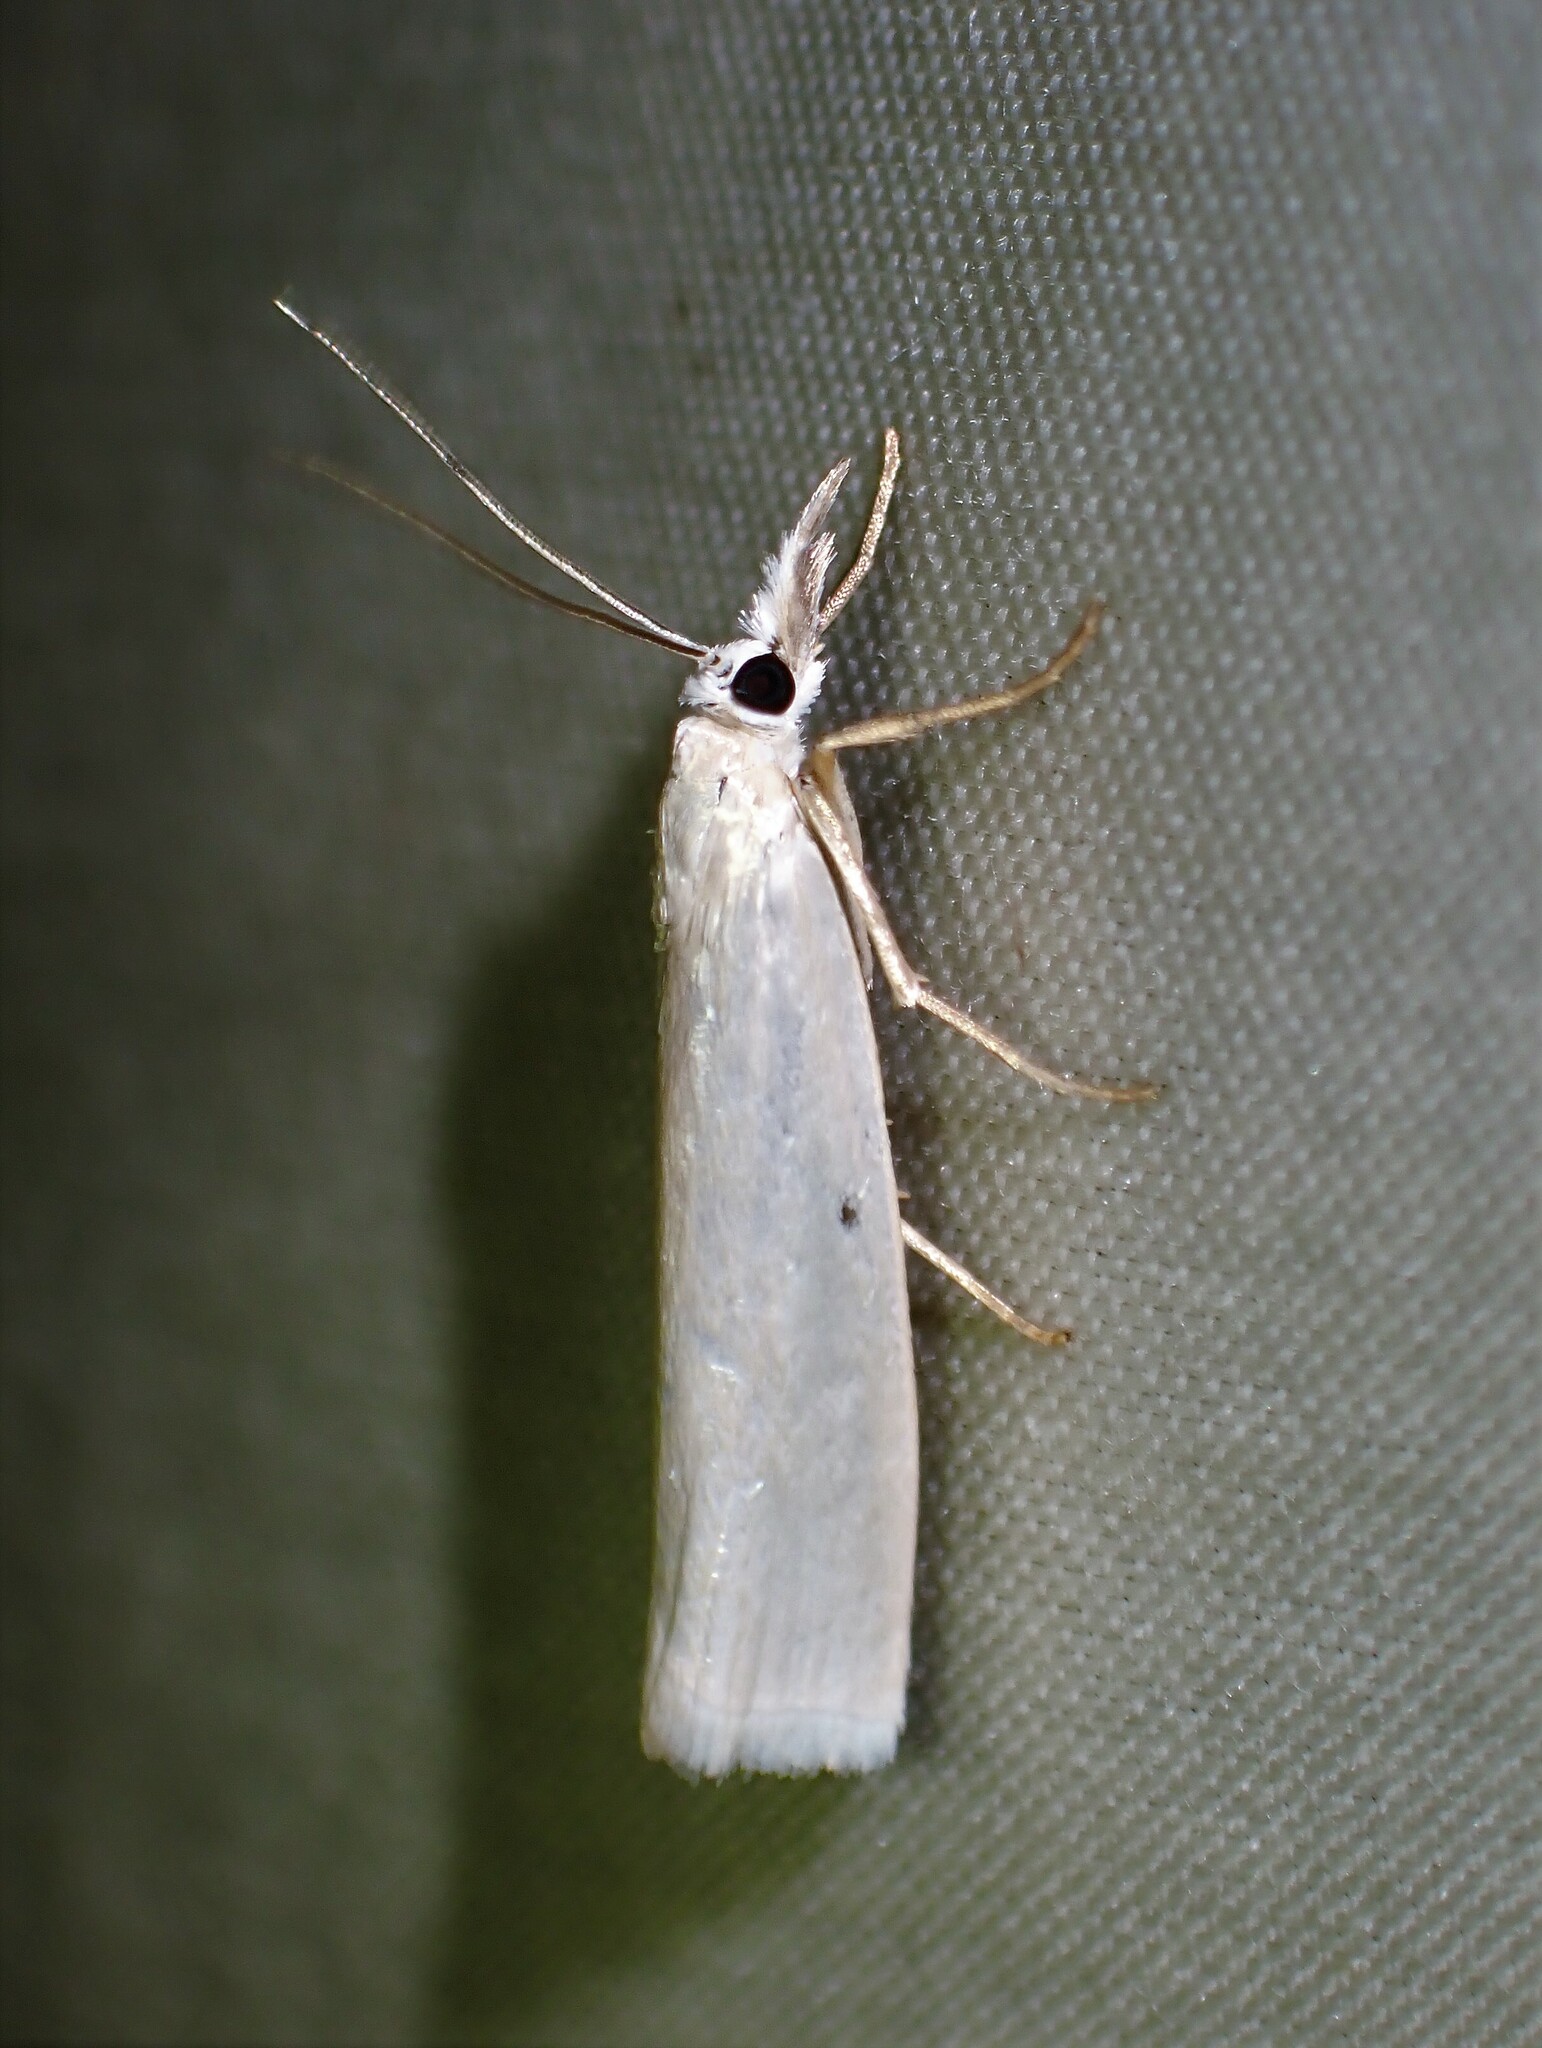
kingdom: Animalia
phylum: Arthropoda
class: Insecta
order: Lepidoptera
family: Crambidae
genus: Crambus
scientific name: Crambus perlellus
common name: Yellow satin veneer
